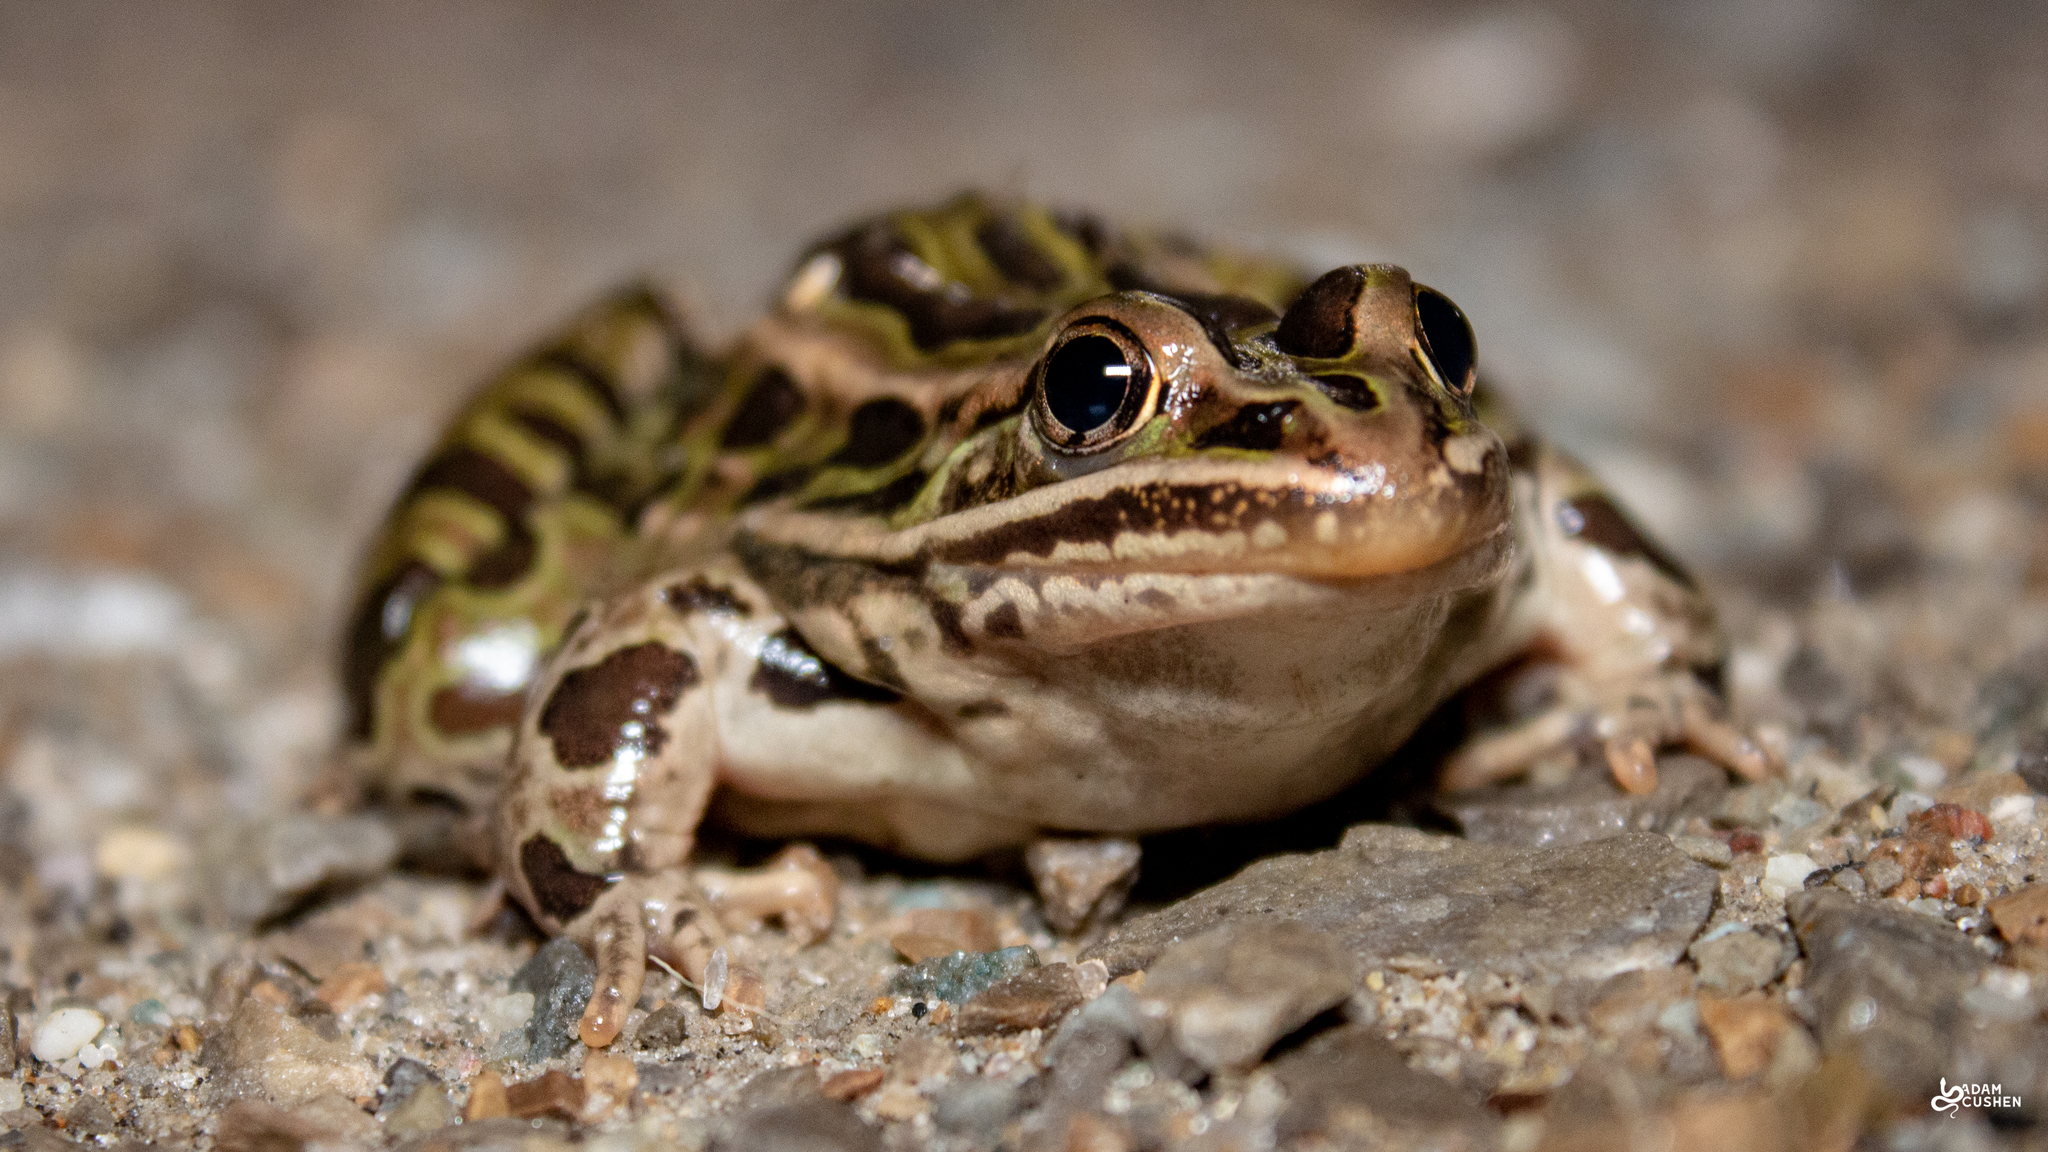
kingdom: Animalia
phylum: Chordata
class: Amphibia
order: Anura
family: Ranidae
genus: Lithobates
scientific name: Lithobates pipiens
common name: Northern leopard frog
